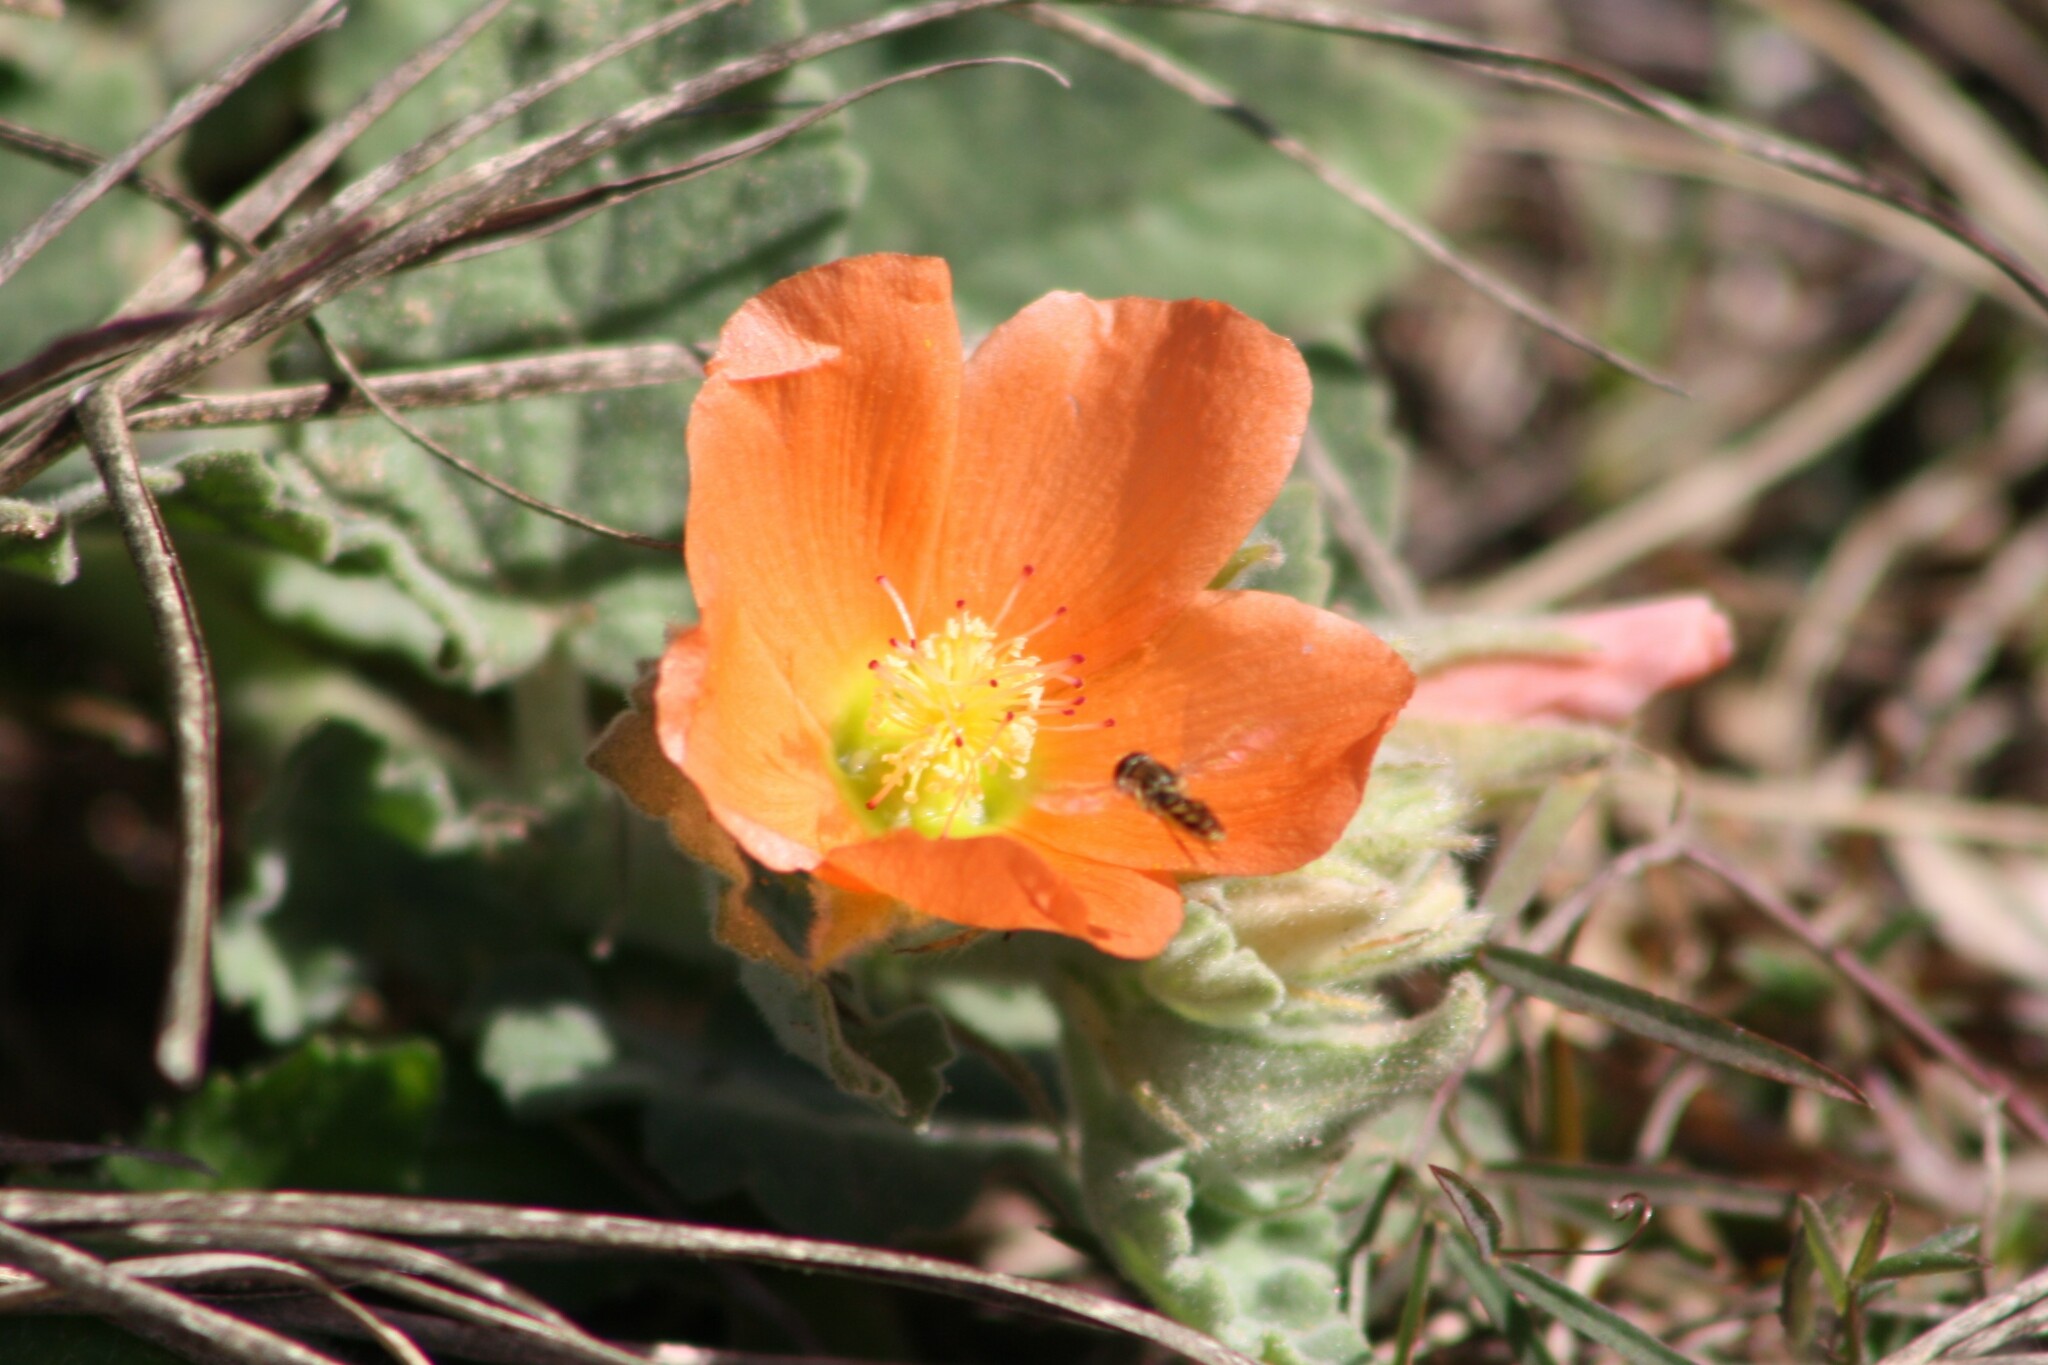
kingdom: Plantae
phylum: Tracheophyta
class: Magnoliopsida
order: Malvales
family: Malvaceae
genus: Sphaeralcea
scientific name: Sphaeralcea lindheimeri
